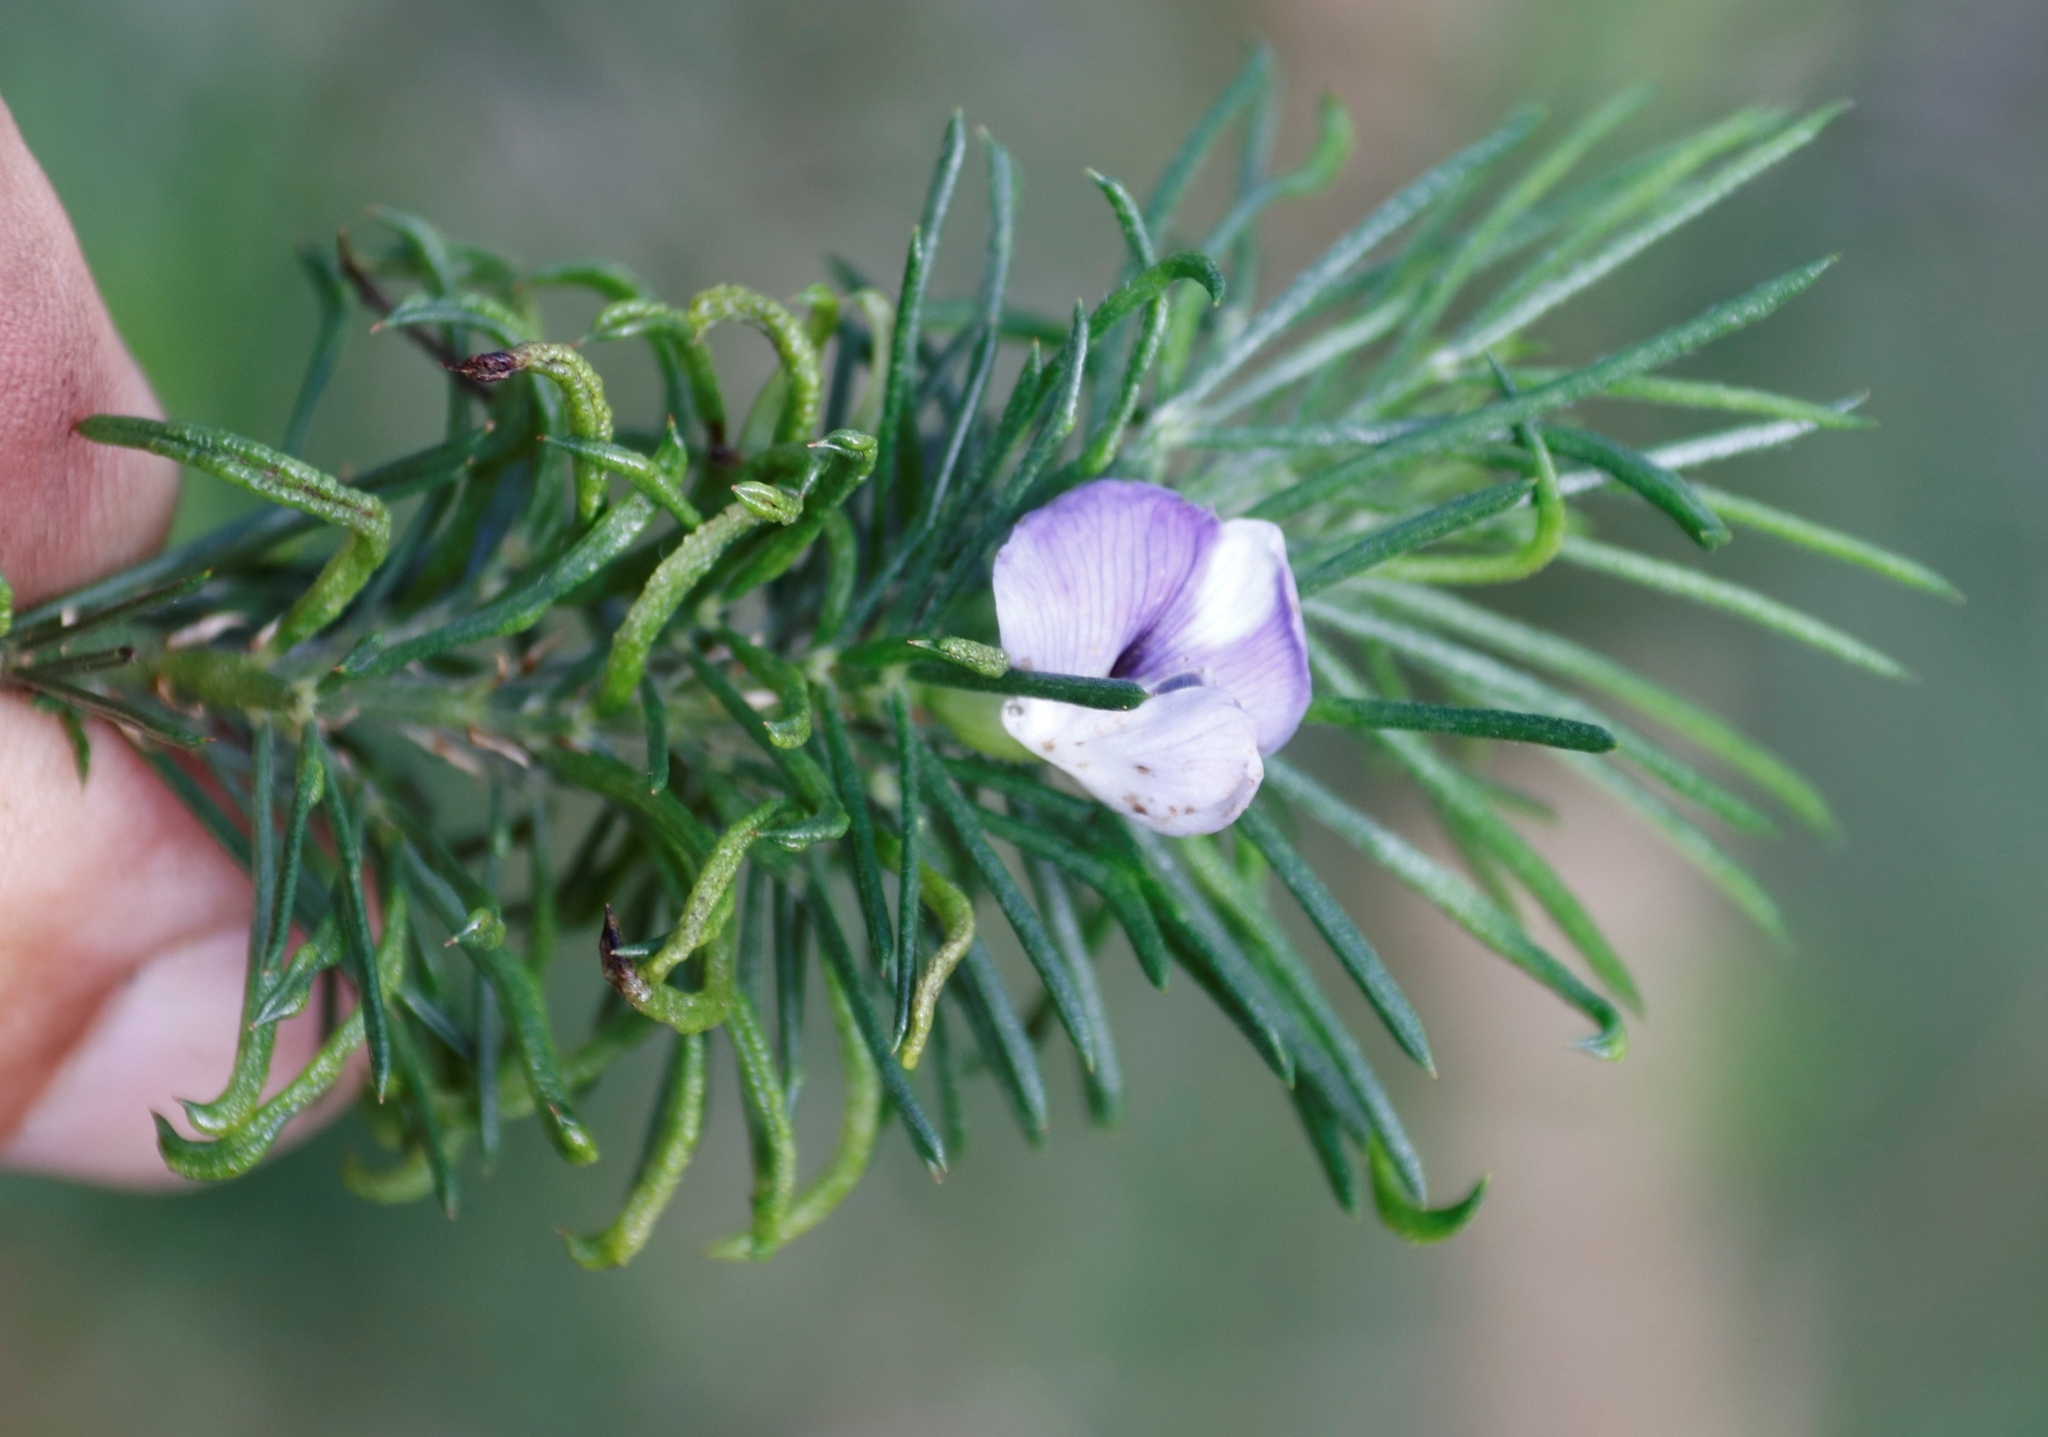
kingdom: Plantae
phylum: Tracheophyta
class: Magnoliopsida
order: Fabales
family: Fabaceae
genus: Psoralea
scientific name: Psoralea pinnata
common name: African scurfpea
